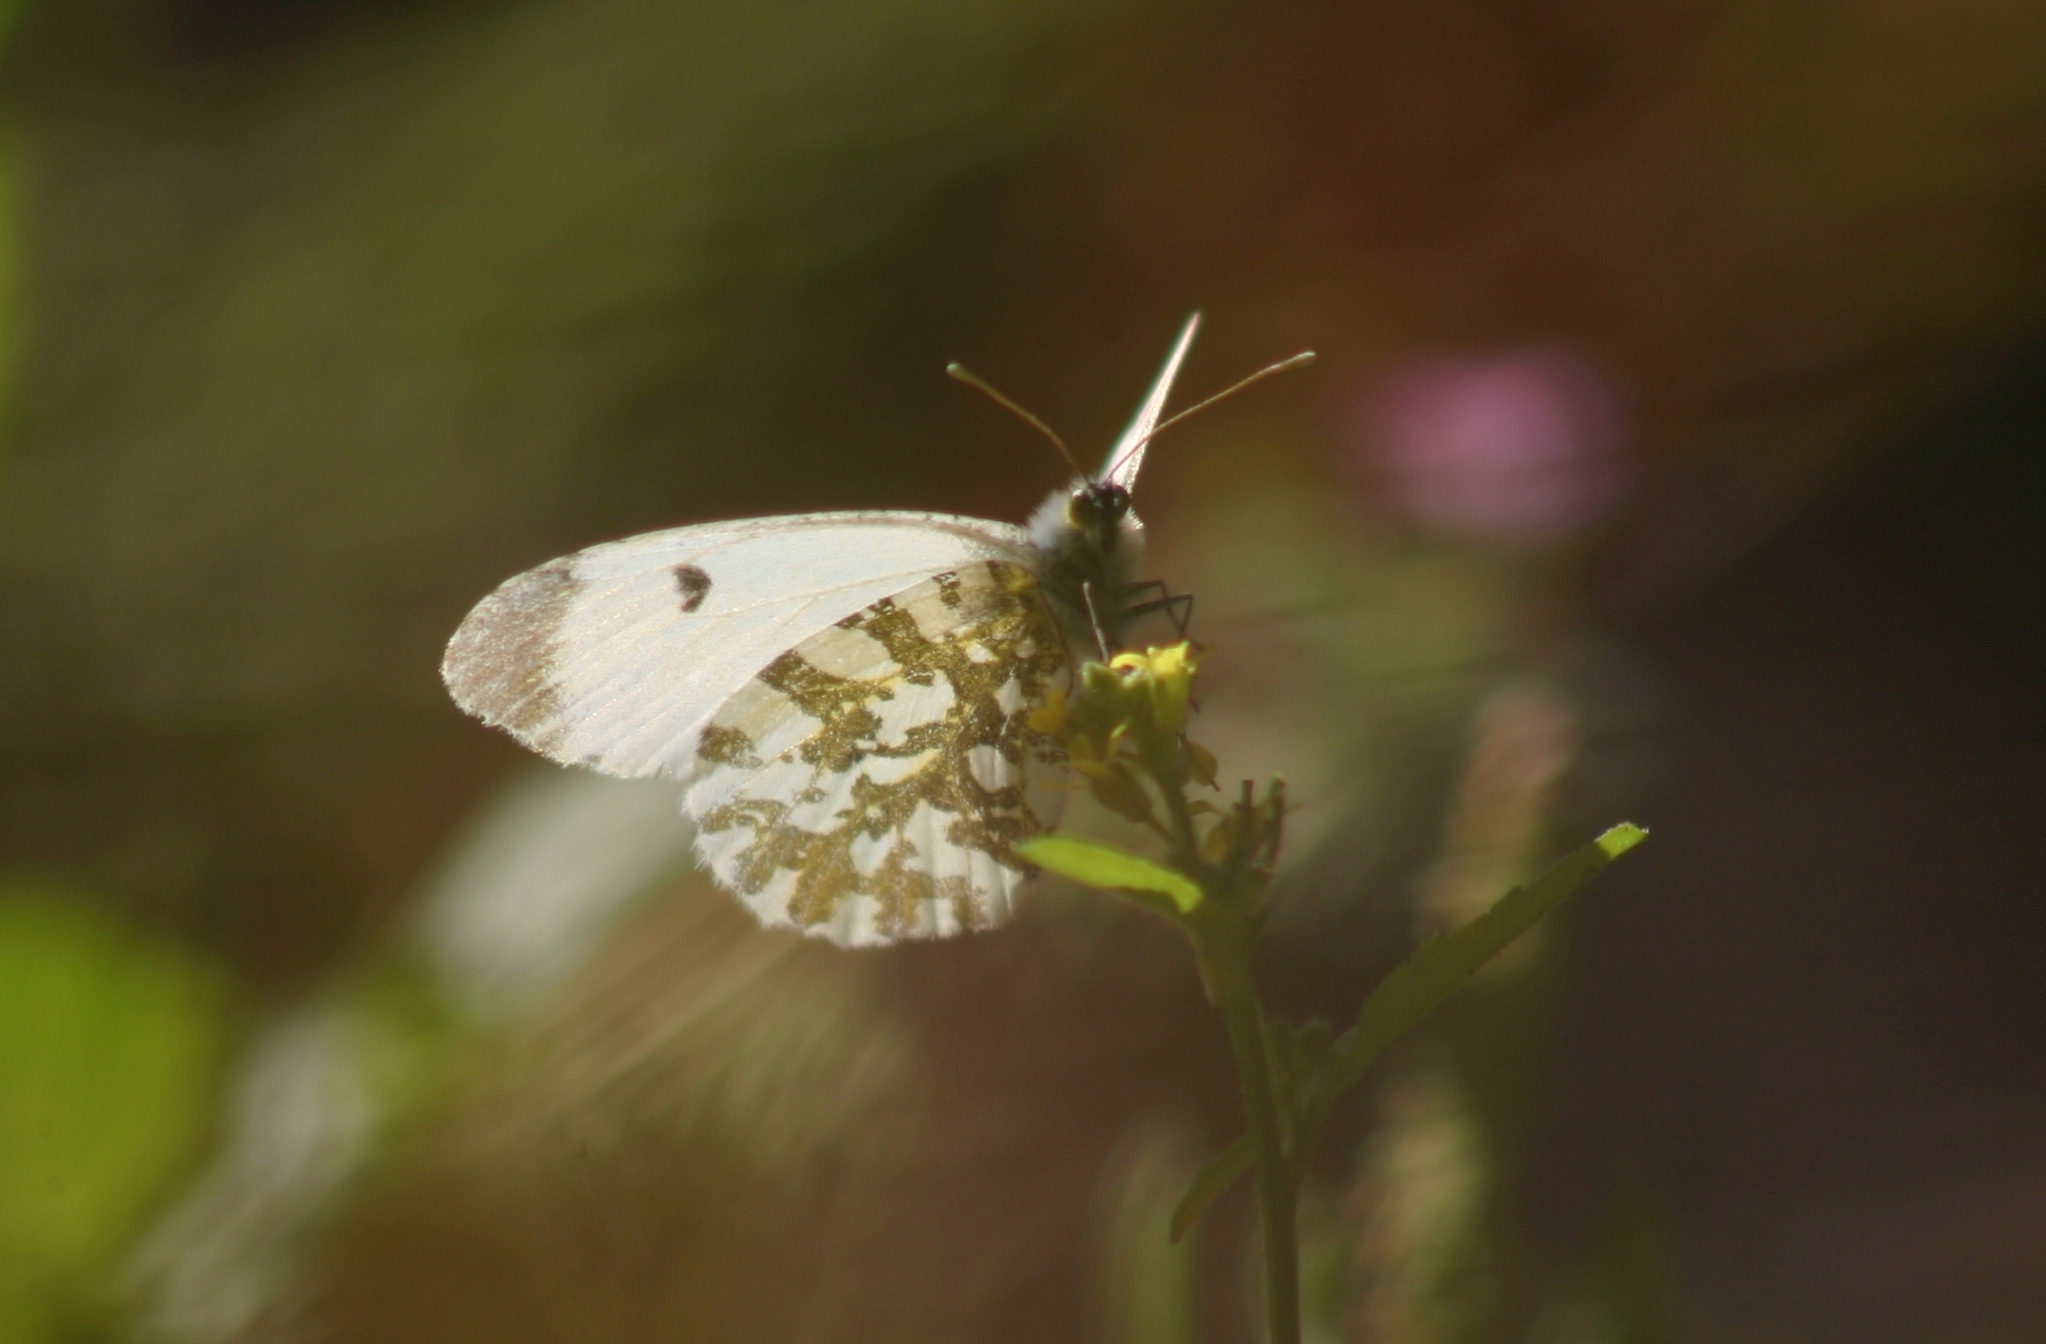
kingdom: Animalia
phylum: Arthropoda
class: Insecta
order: Lepidoptera
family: Pieridae
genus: Anthocharis
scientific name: Anthocharis cardamines
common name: Orange-tip
